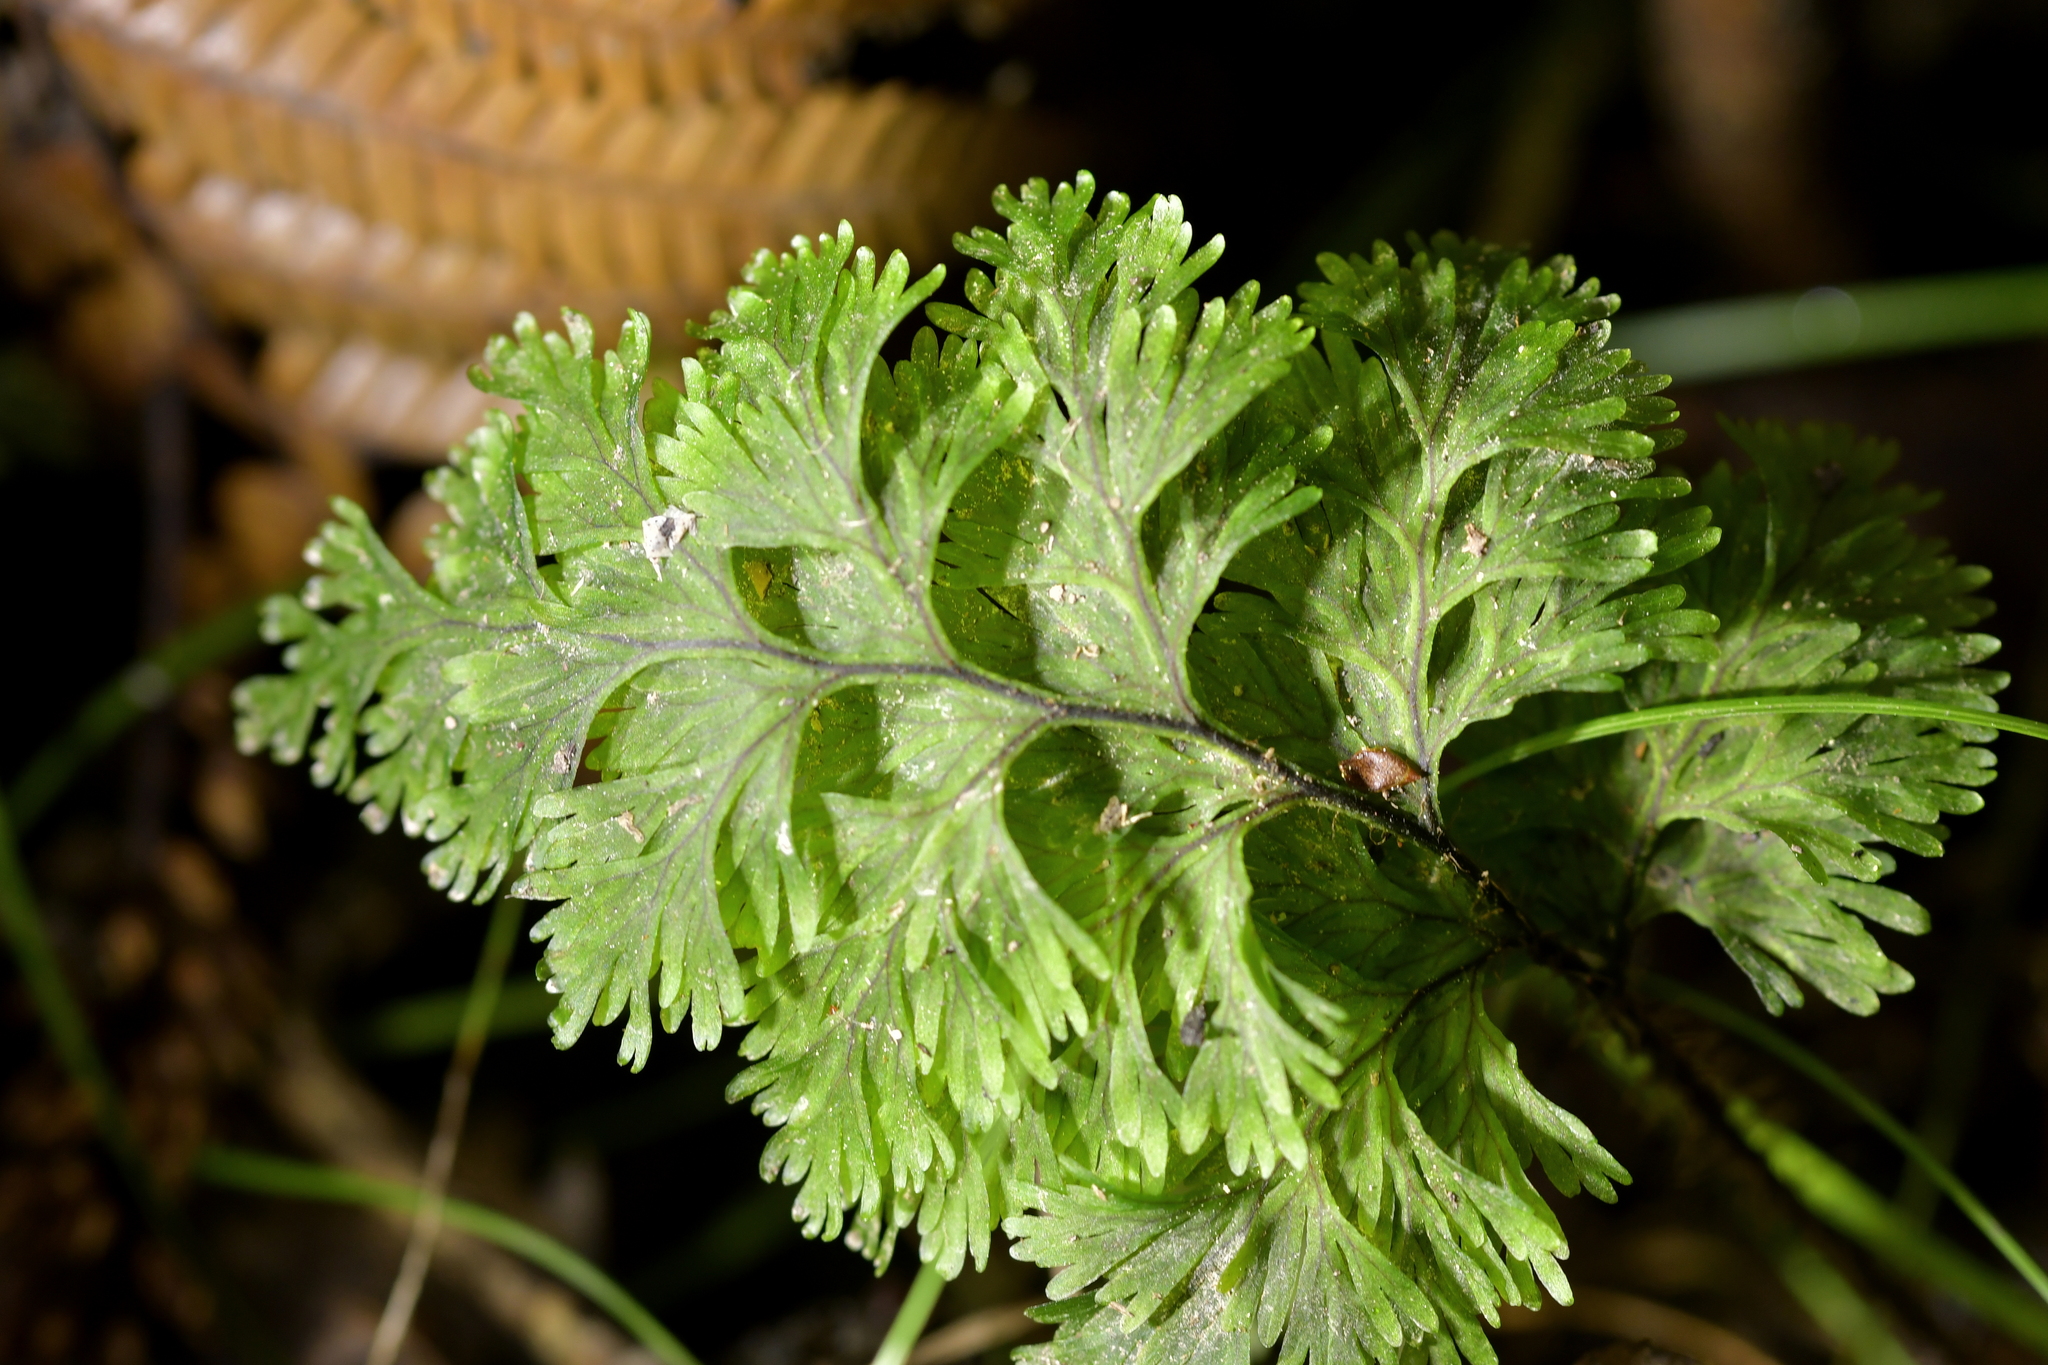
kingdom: Plantae
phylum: Tracheophyta
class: Polypodiopsida
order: Hymenophyllales
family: Hymenophyllaceae
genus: Hymenophyllum
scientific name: Hymenophyllum scabrum
